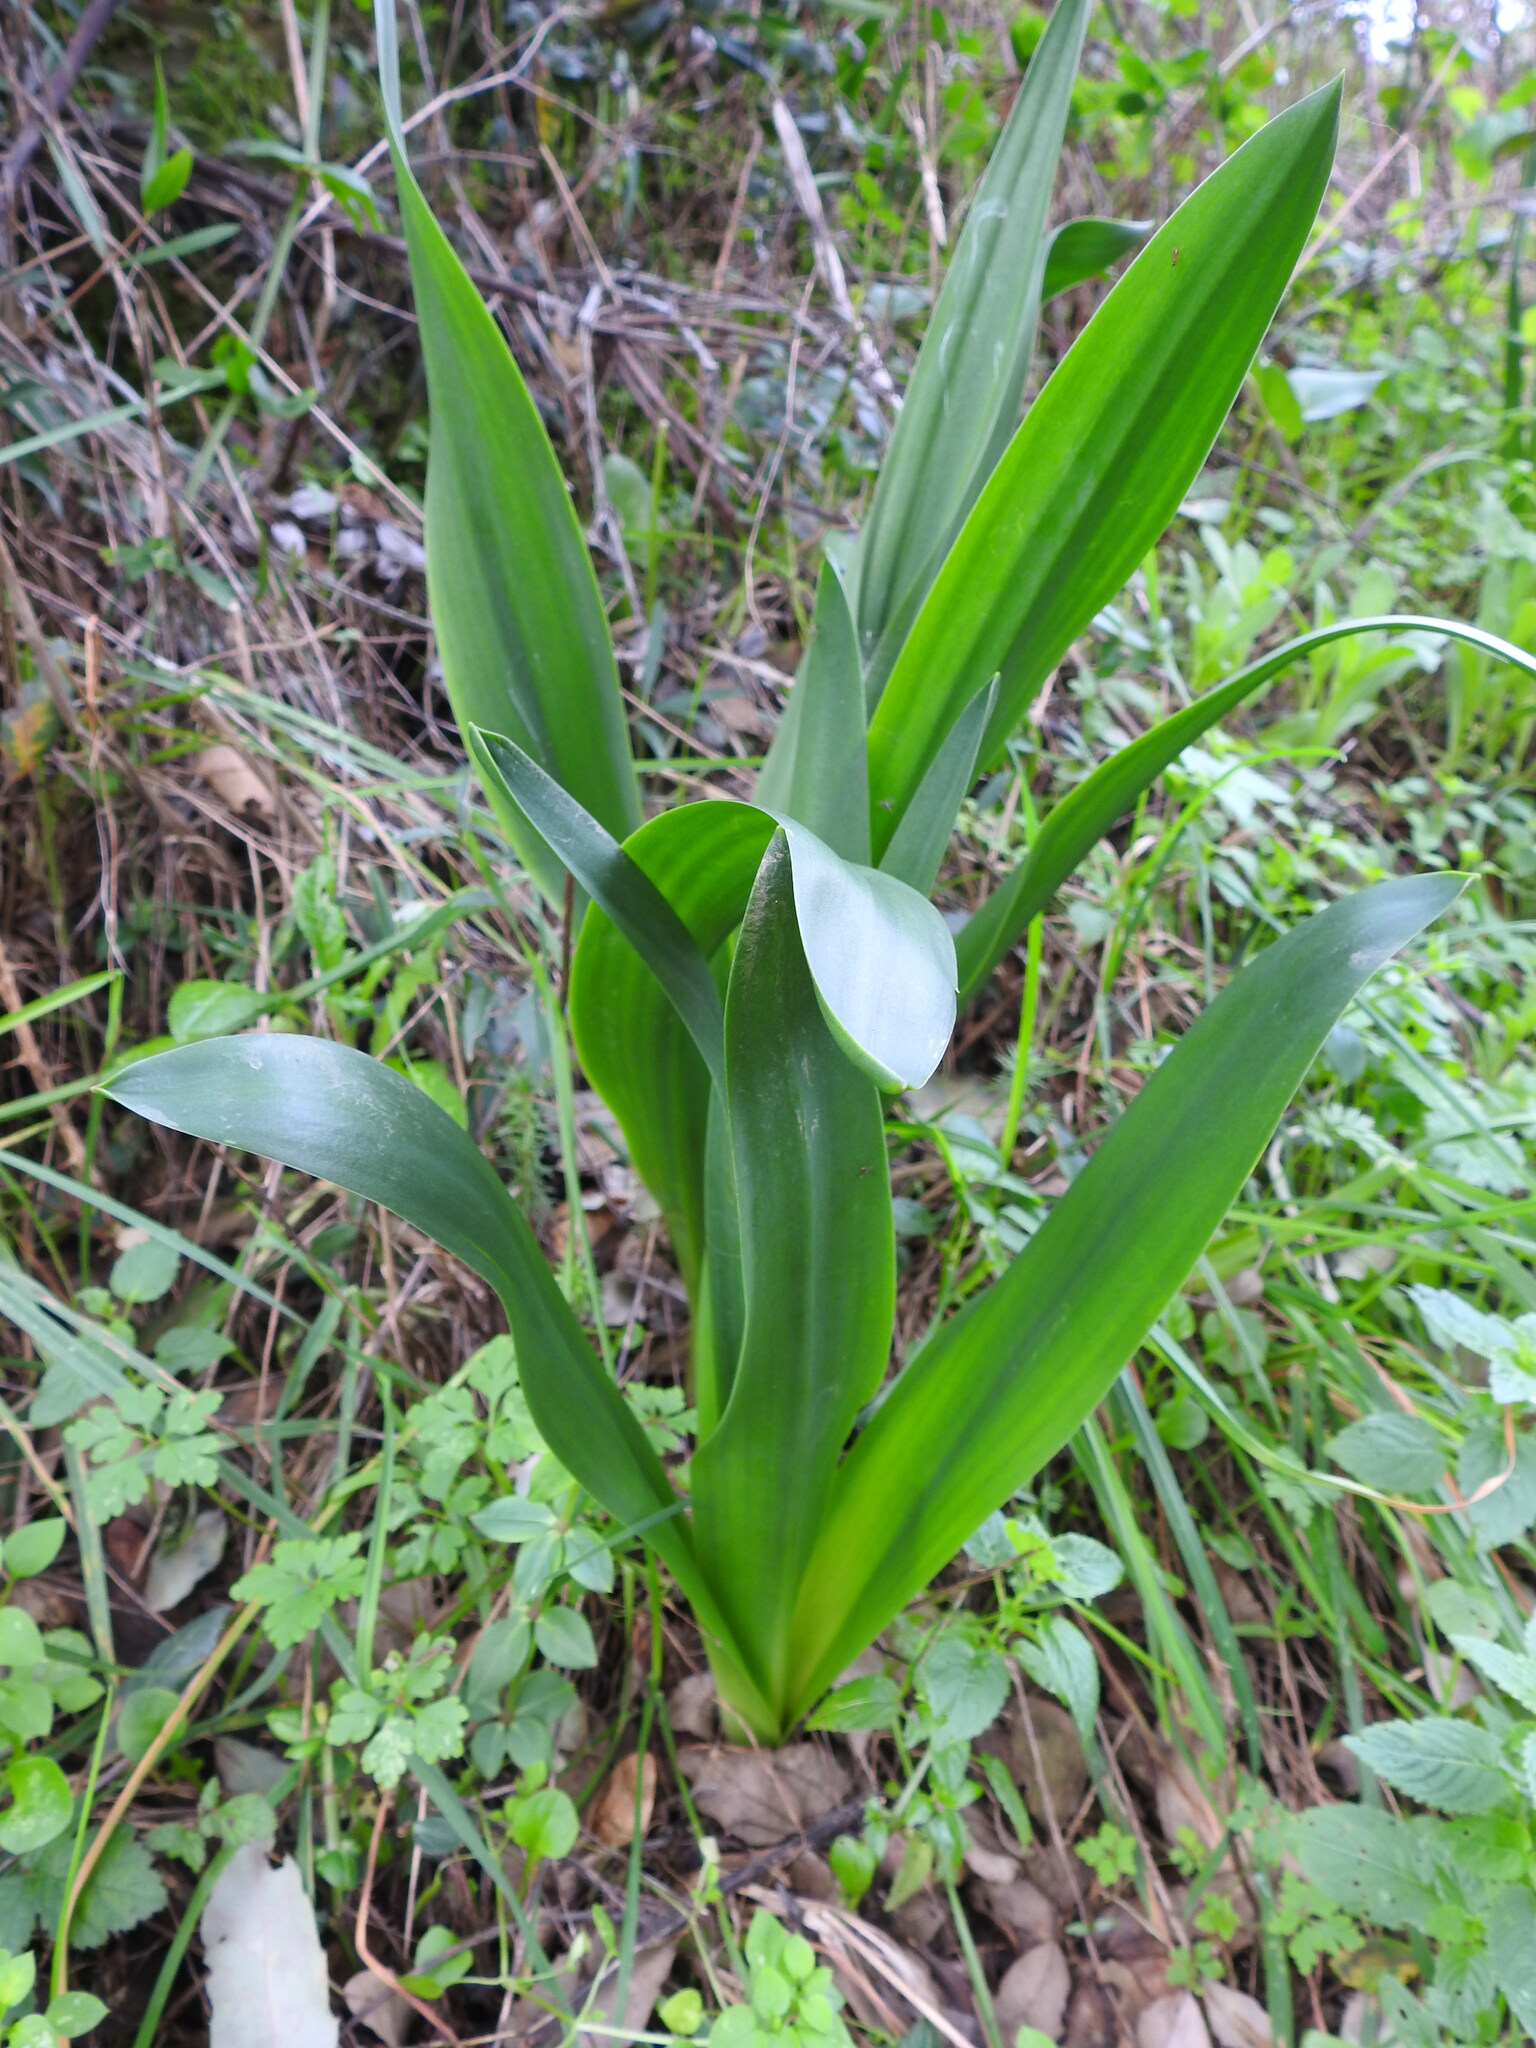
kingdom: Plantae
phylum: Tracheophyta
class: Liliopsida
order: Asparagales
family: Asparagaceae
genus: Drimia
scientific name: Drimia maritima
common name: Maritime squill
